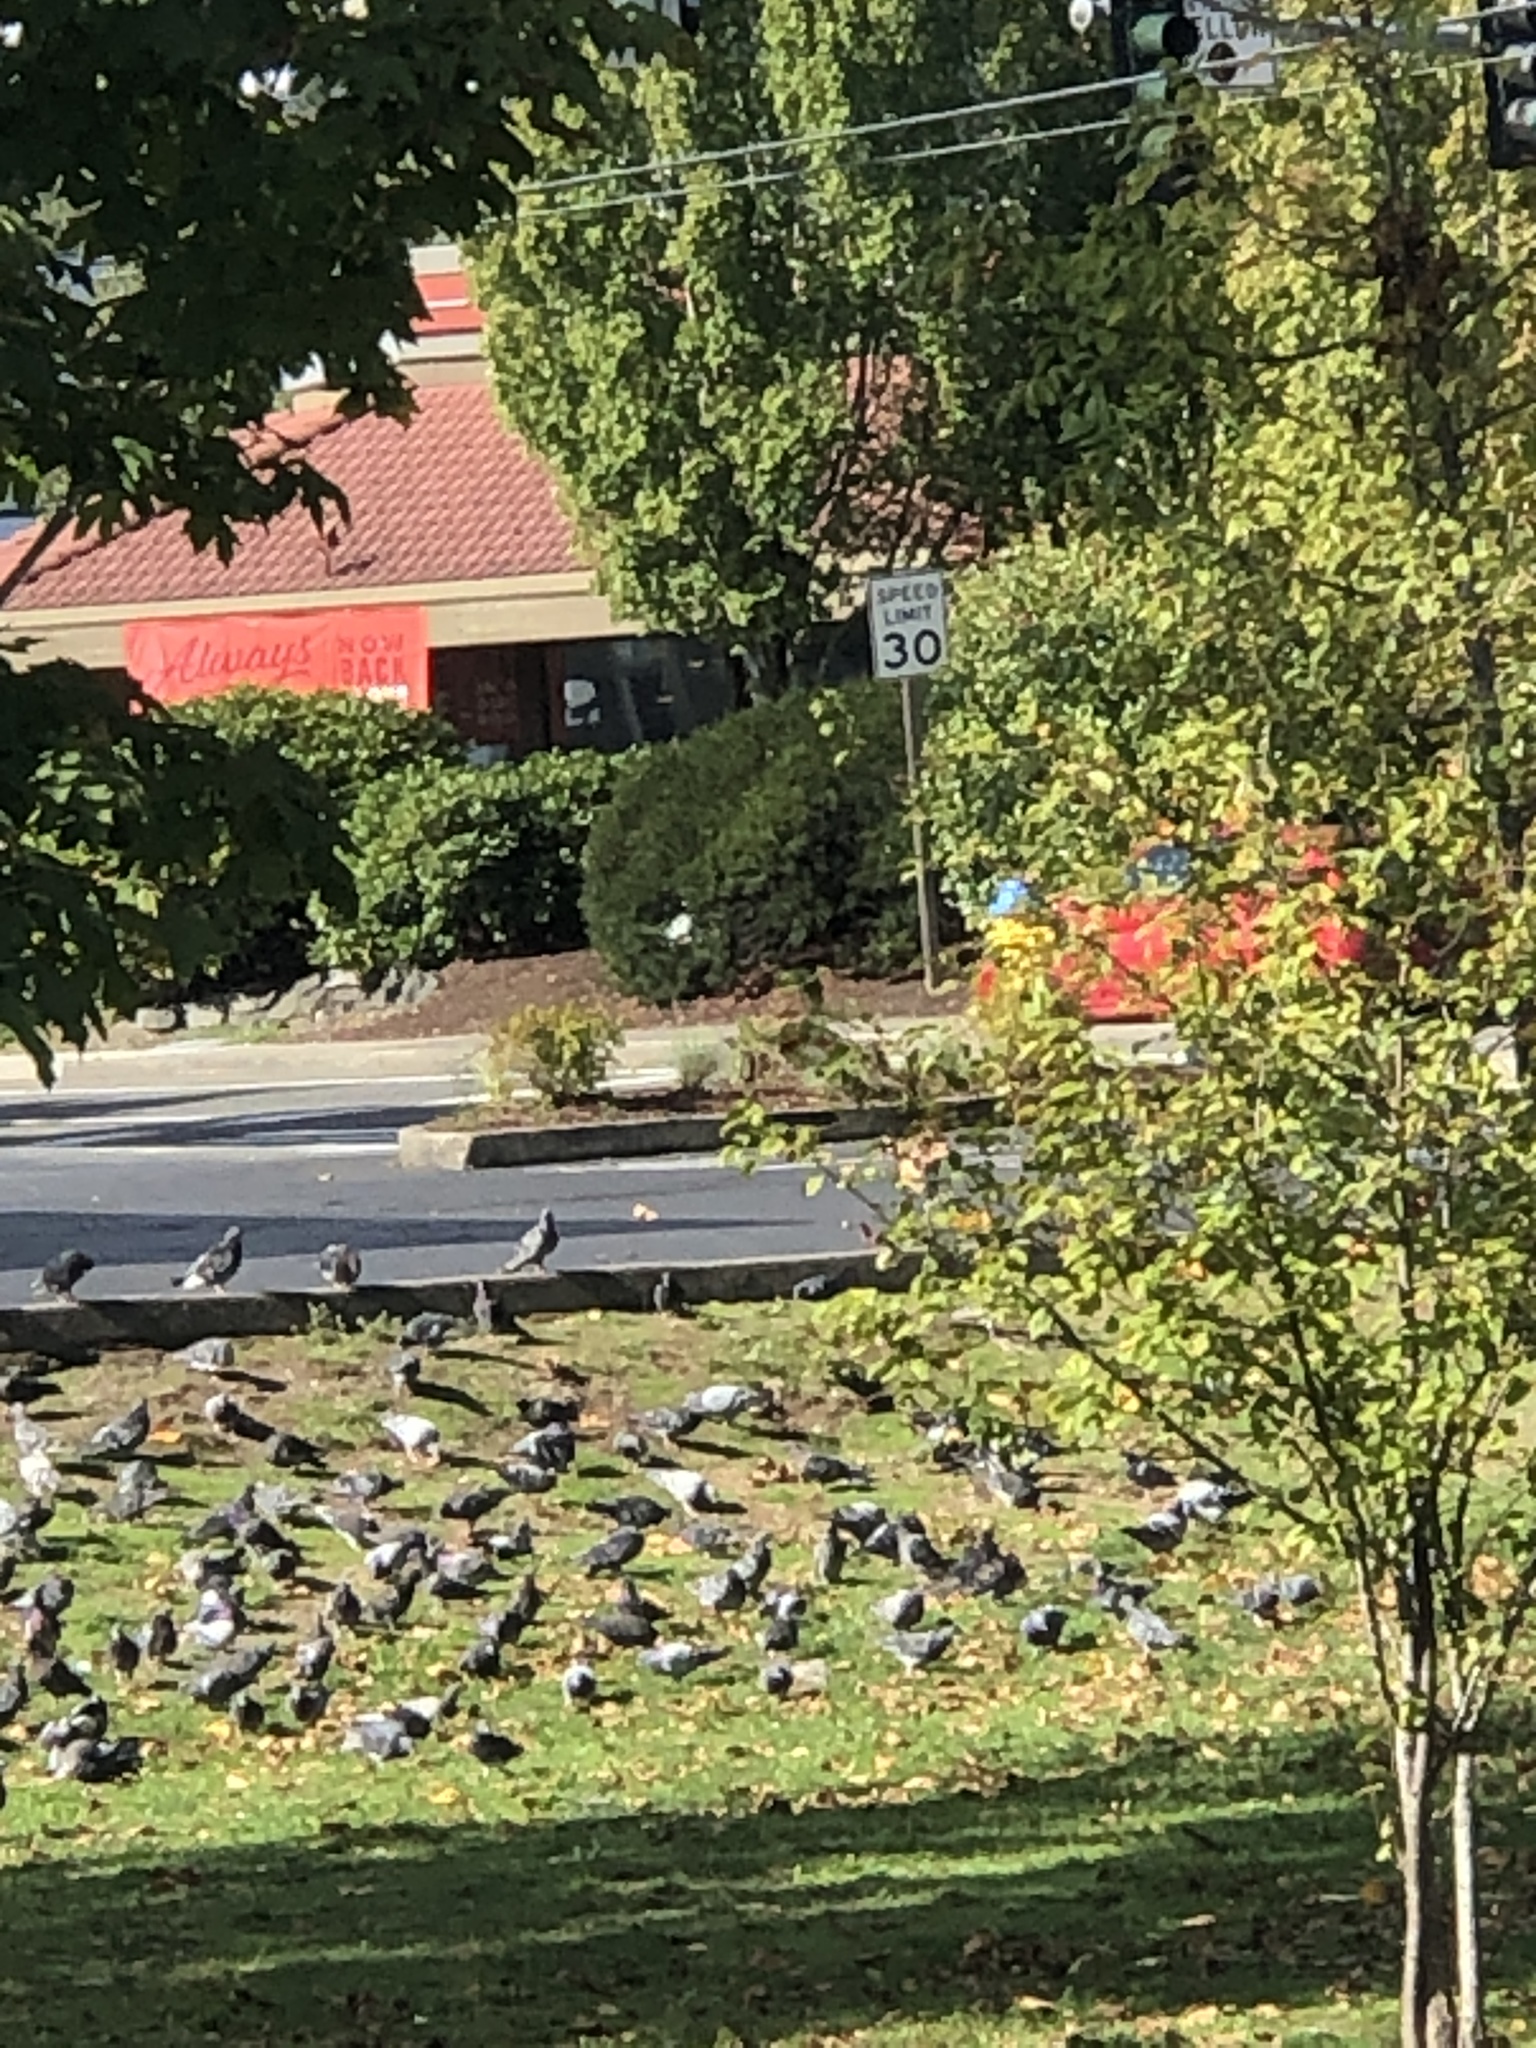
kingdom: Animalia
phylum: Chordata
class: Aves
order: Columbiformes
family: Columbidae
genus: Columba
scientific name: Columba livia
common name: Rock pigeon
